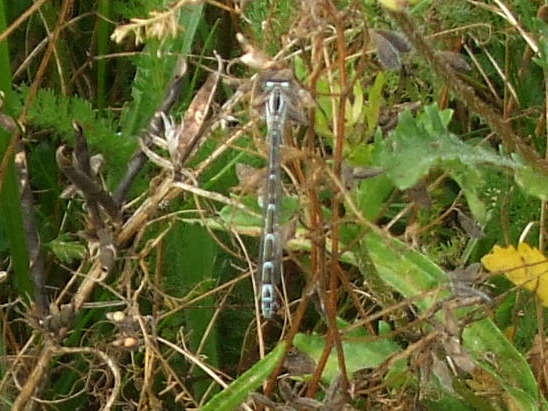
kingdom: Animalia
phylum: Arthropoda
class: Insecta
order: Odonata
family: Coenagrionidae
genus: Enallagma
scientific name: Enallagma cyathigerum
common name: Common blue damselfly
